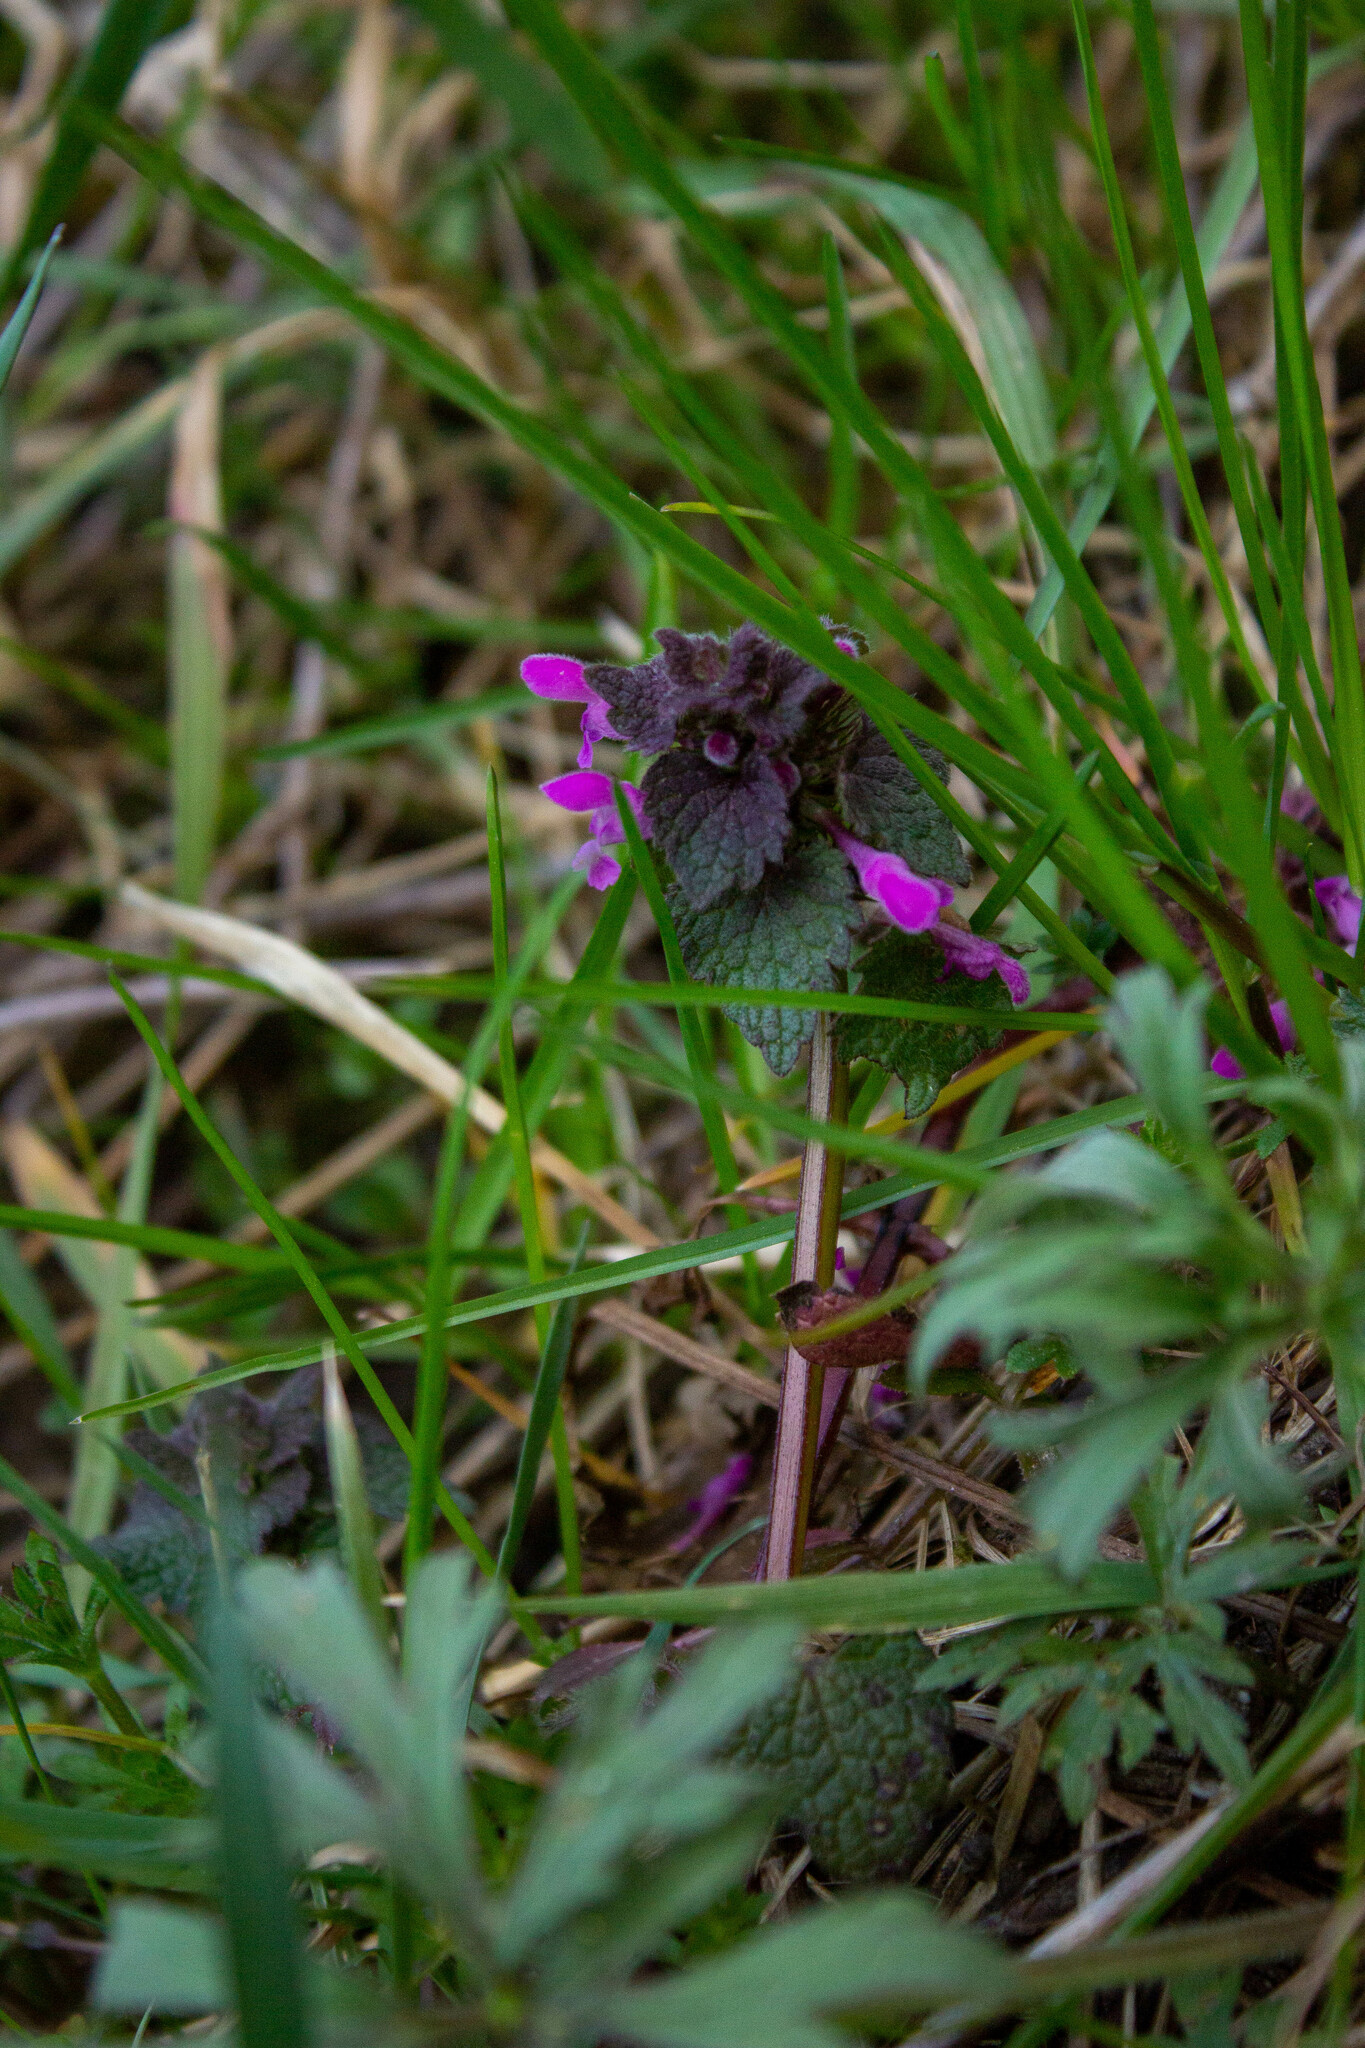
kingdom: Plantae
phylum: Tracheophyta
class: Magnoliopsida
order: Lamiales
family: Lamiaceae
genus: Lamium
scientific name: Lamium purpureum
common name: Red dead-nettle
